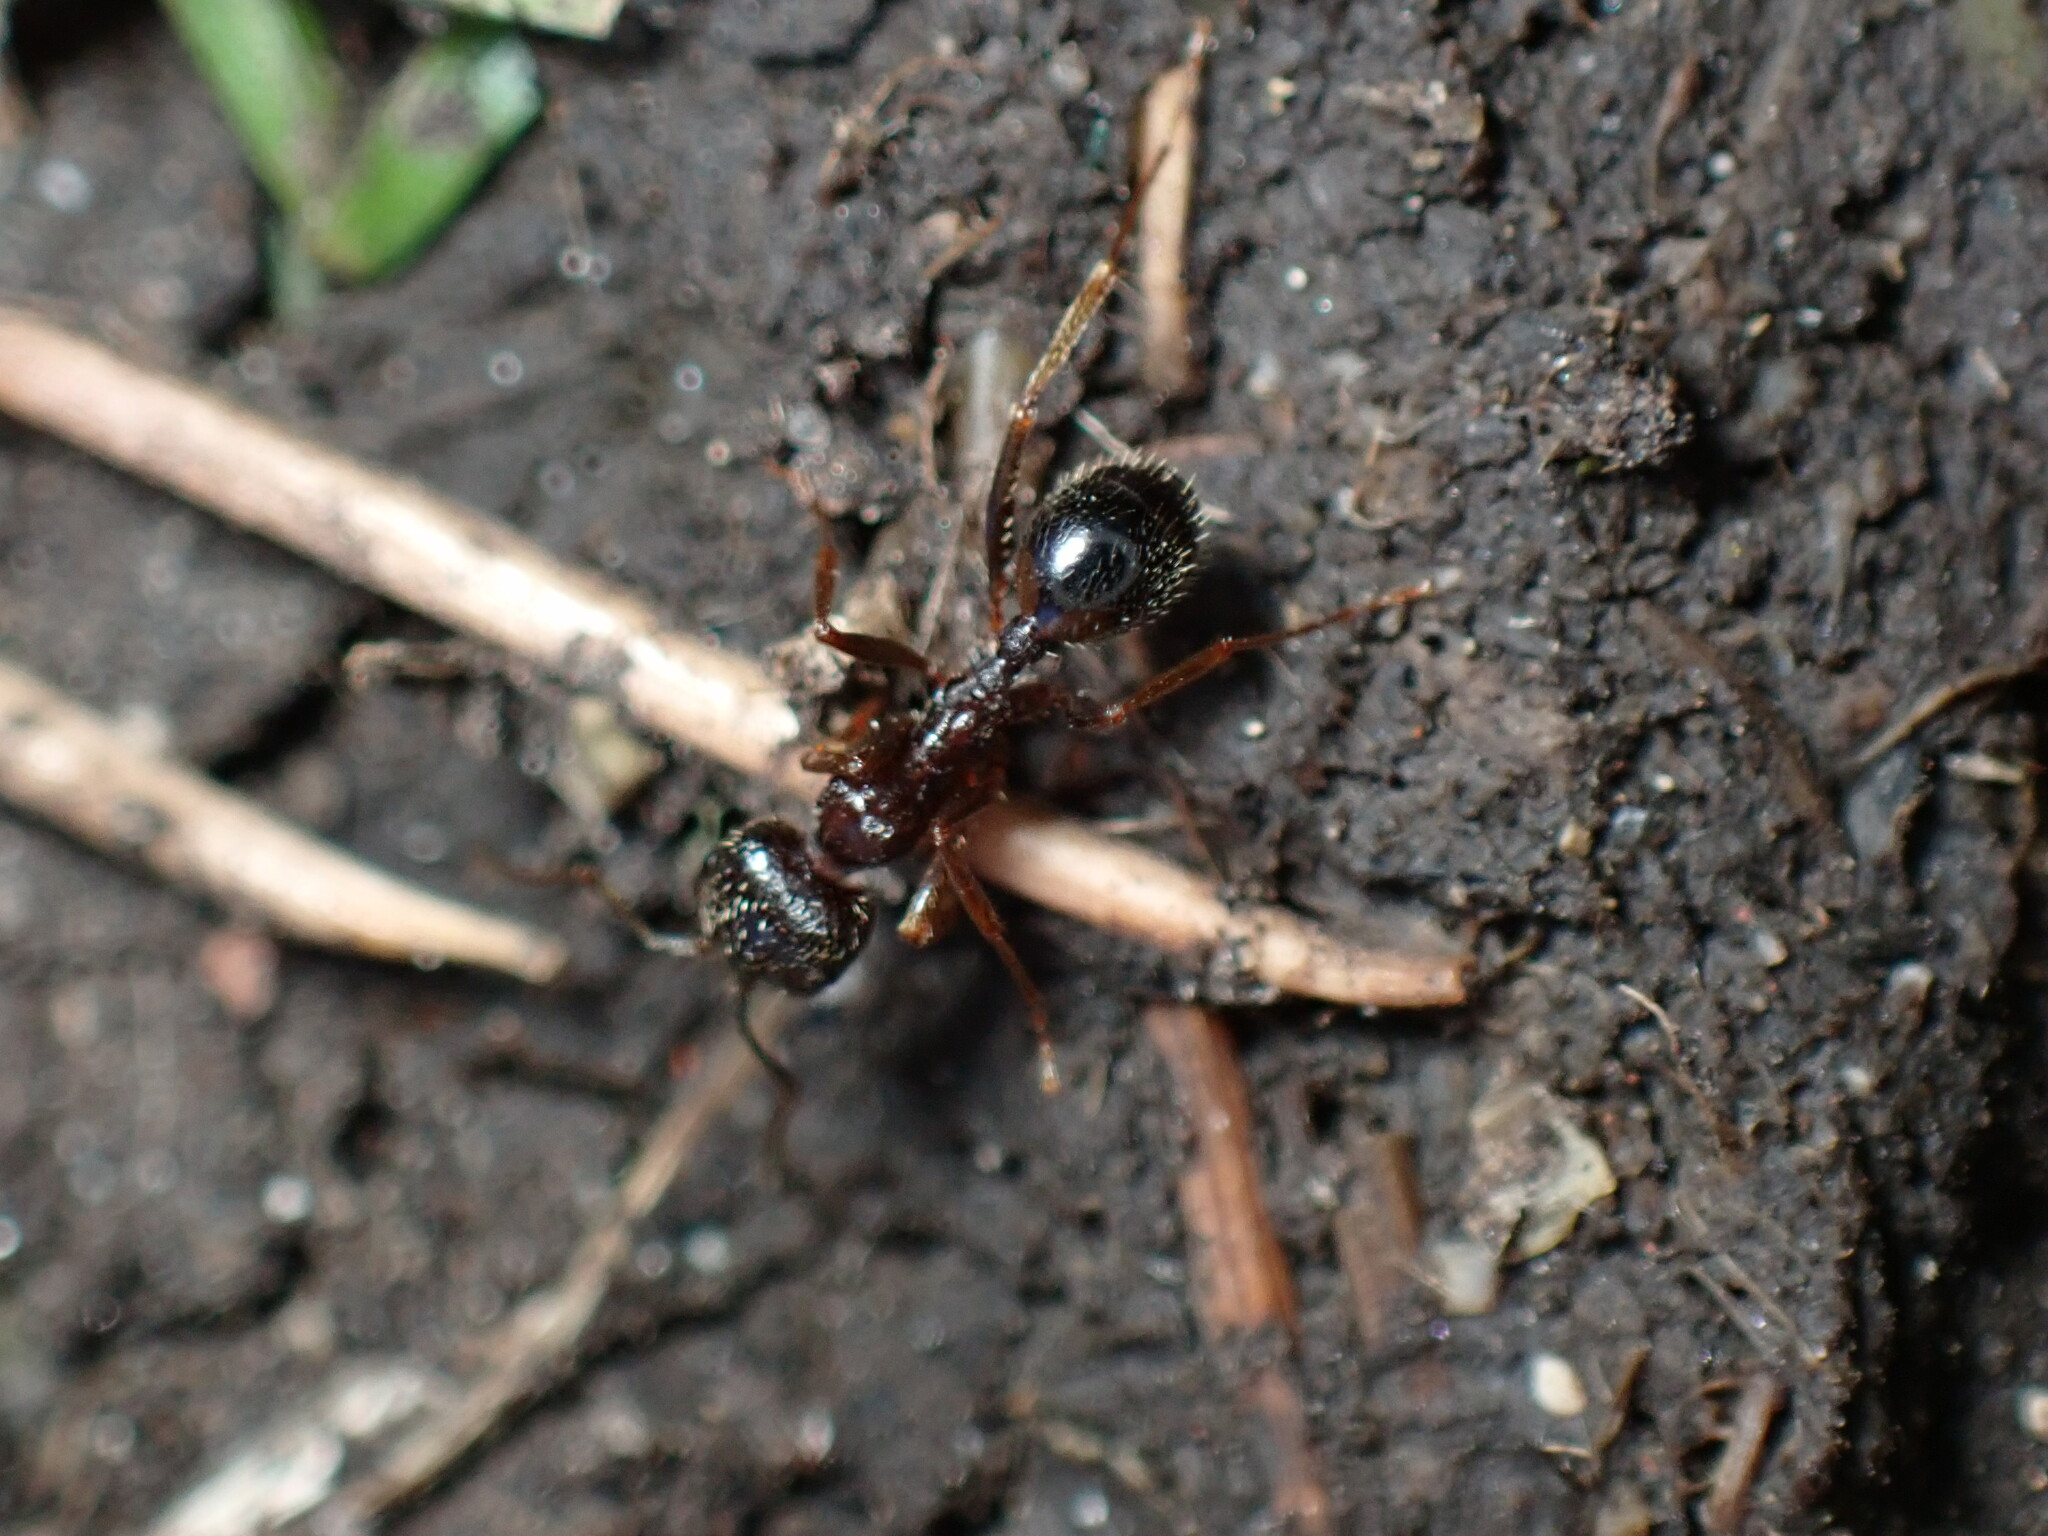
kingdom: Animalia
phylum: Arthropoda
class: Insecta
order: Hymenoptera
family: Formicidae
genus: Messor
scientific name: Messor ibericus
